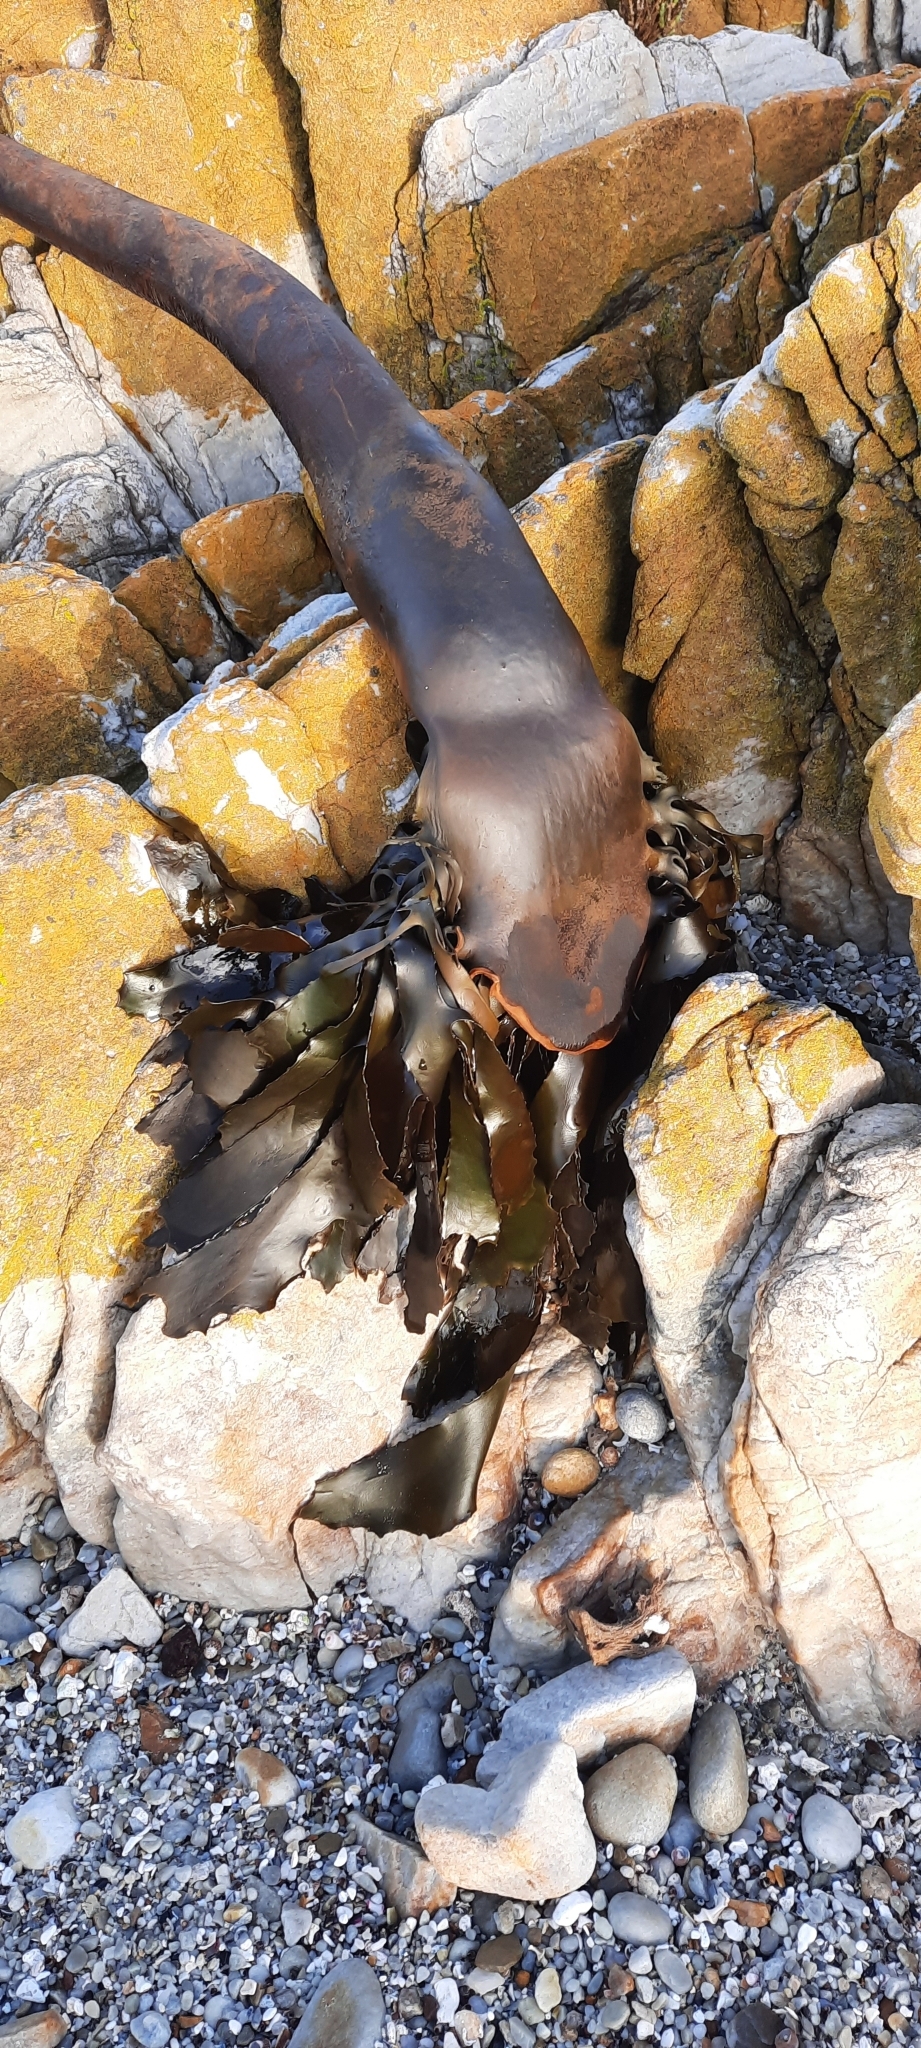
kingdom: Chromista
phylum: Ochrophyta
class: Phaeophyceae
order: Laminariales
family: Lessoniaceae
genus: Ecklonia
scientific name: Ecklonia
